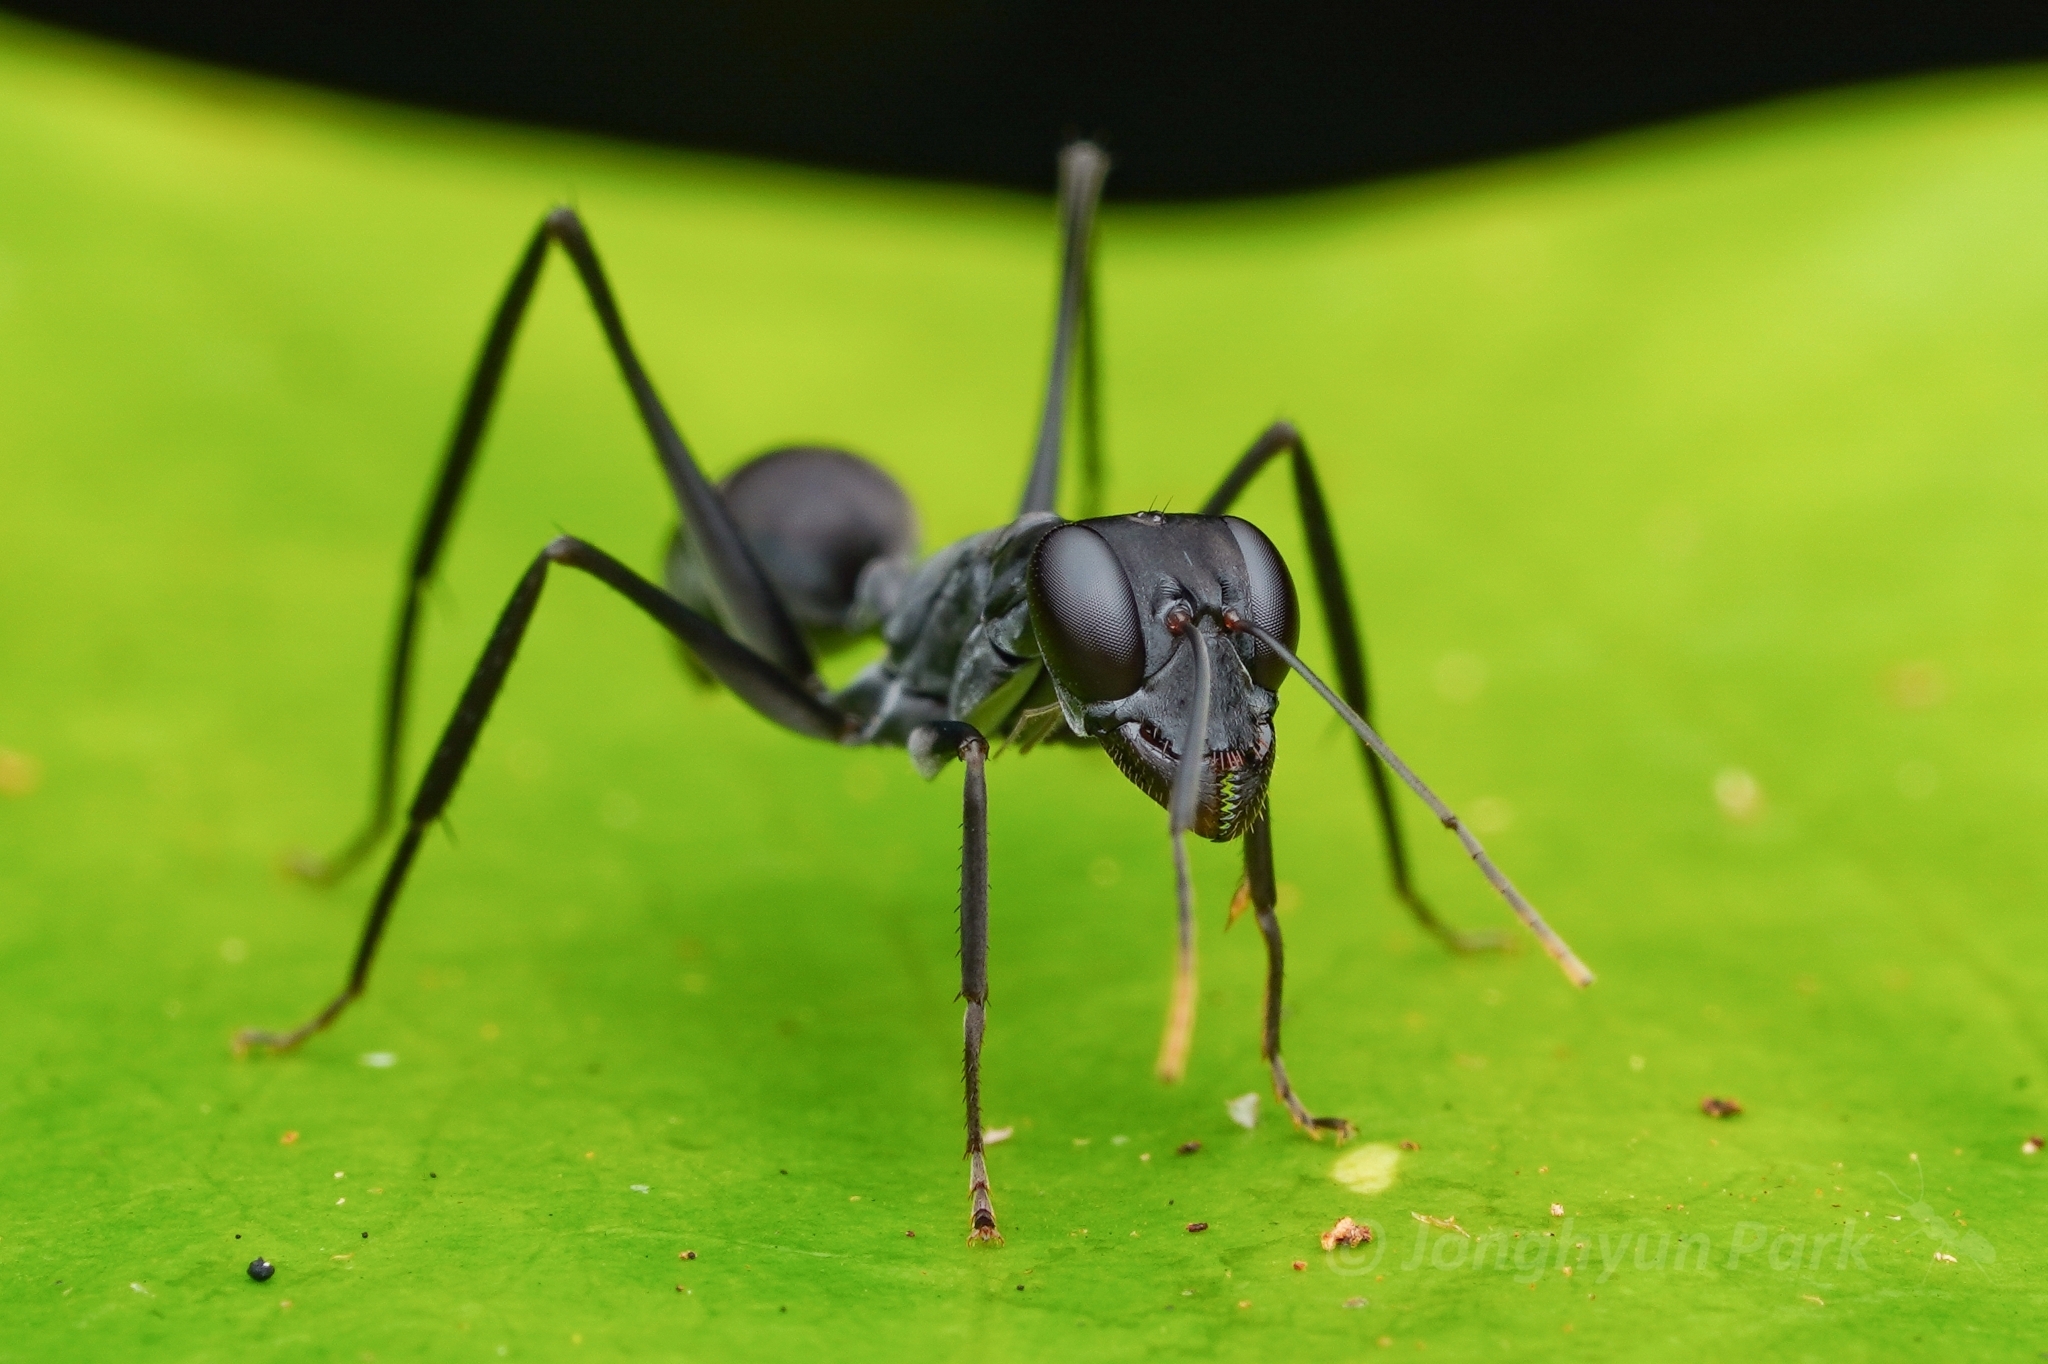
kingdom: Animalia
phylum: Arthropoda
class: Insecta
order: Hymenoptera
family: Formicidae
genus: Gigantiops
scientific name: Gigantiops destructor
